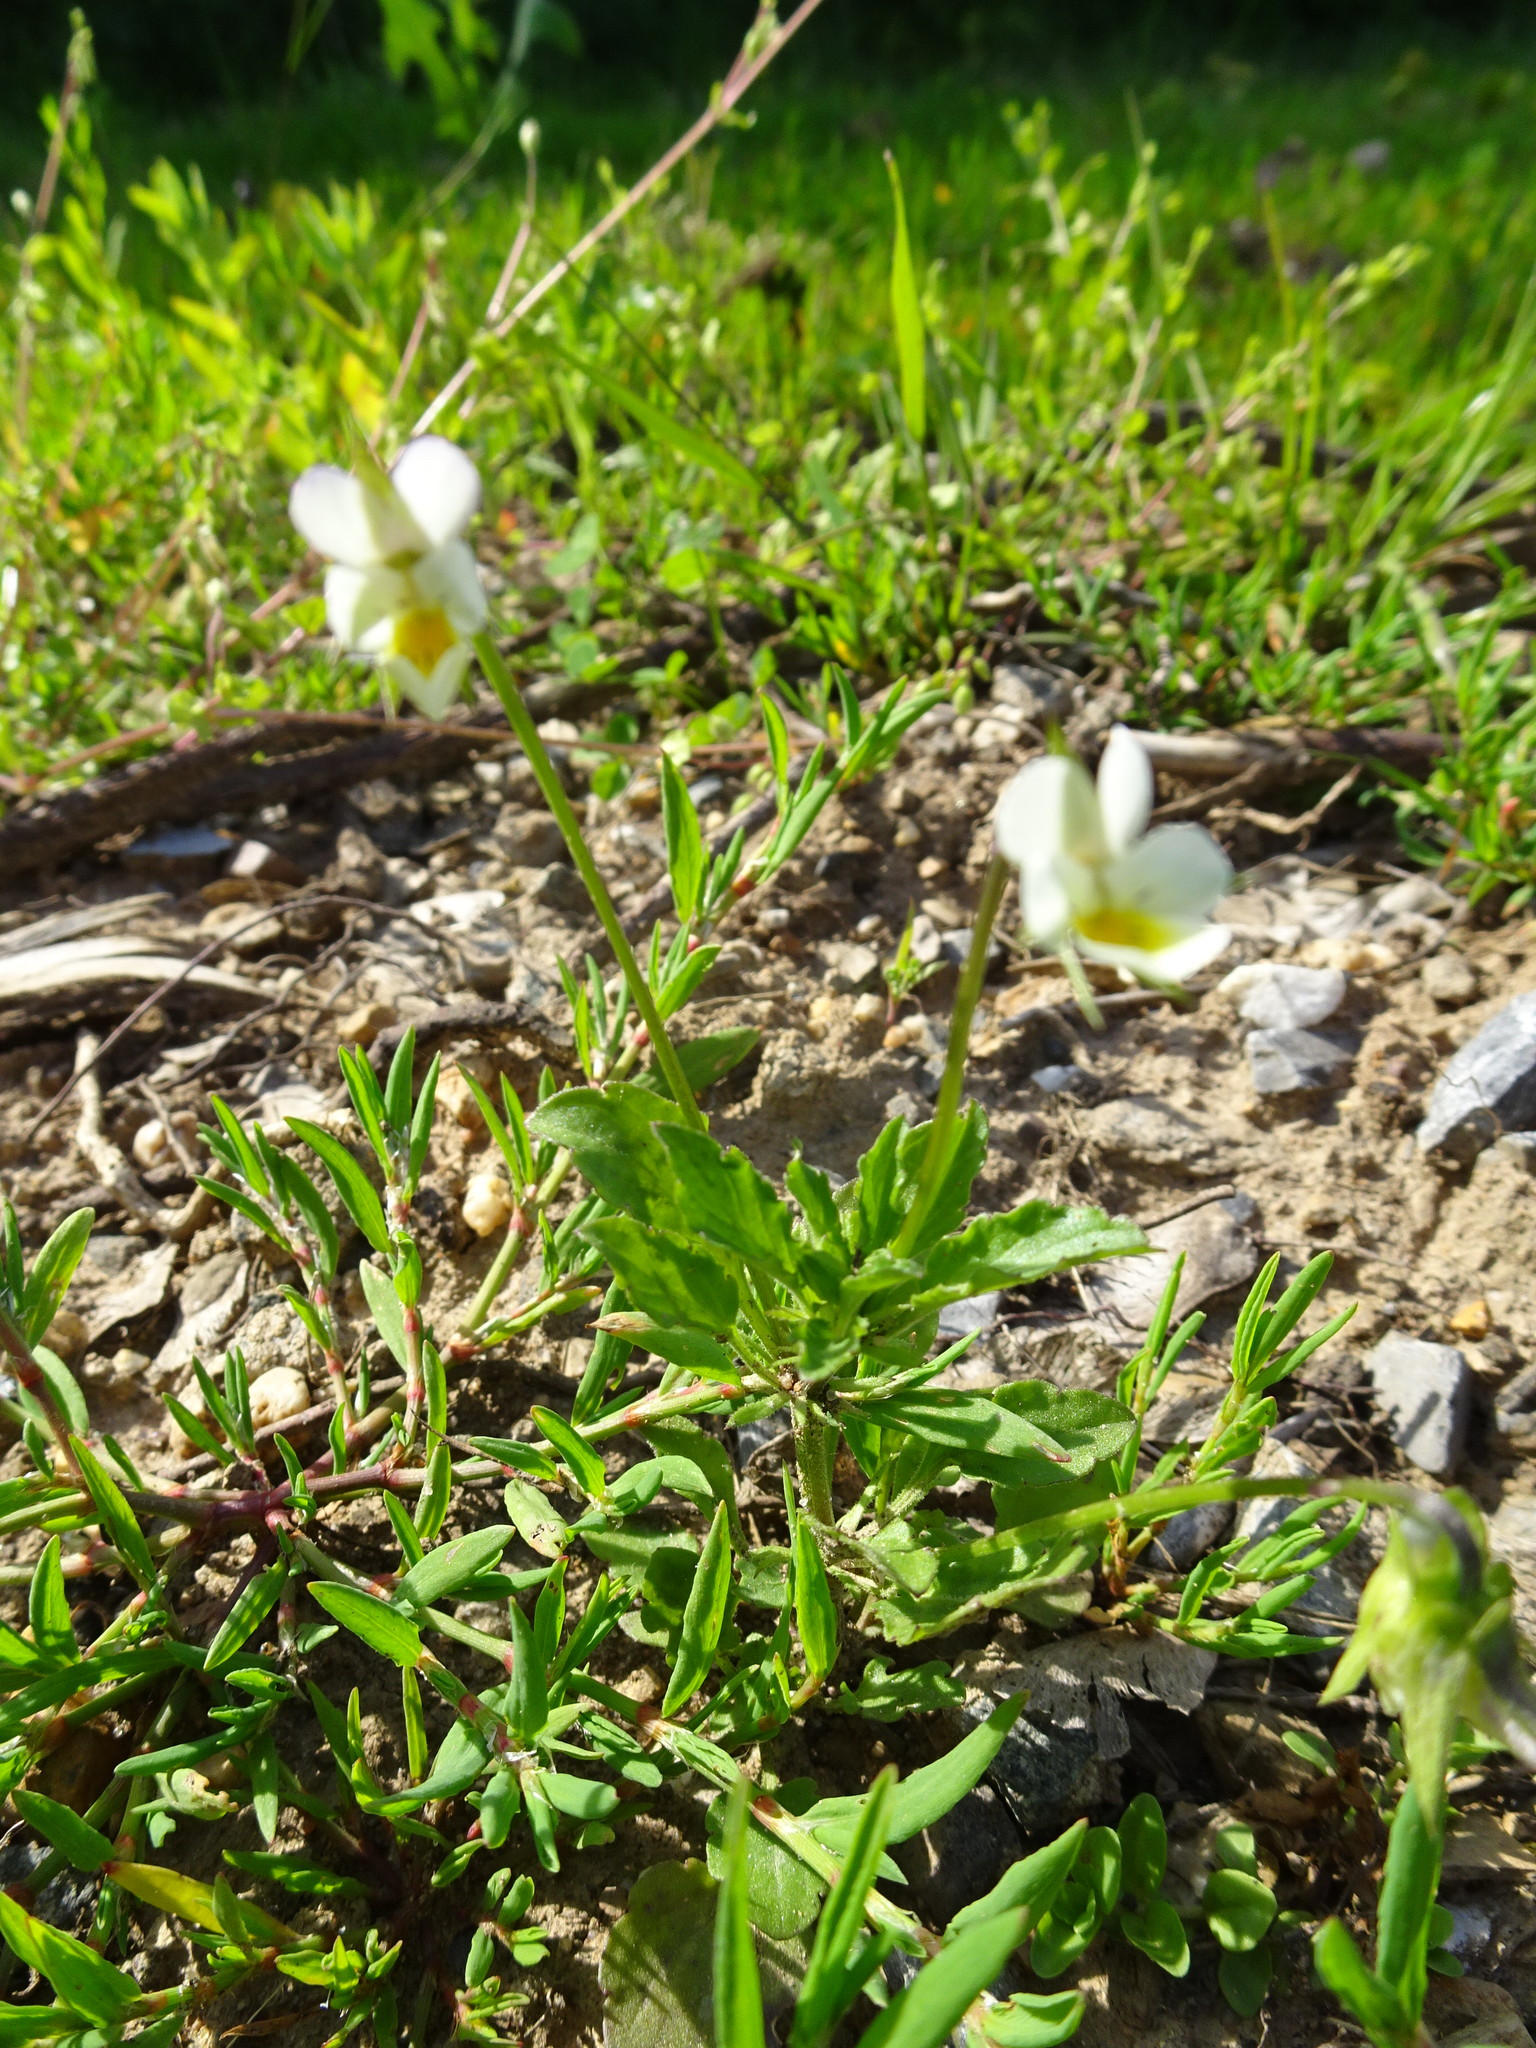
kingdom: Plantae
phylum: Tracheophyta
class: Magnoliopsida
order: Malpighiales
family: Violaceae
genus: Viola
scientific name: Viola arvensis
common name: Field pansy
